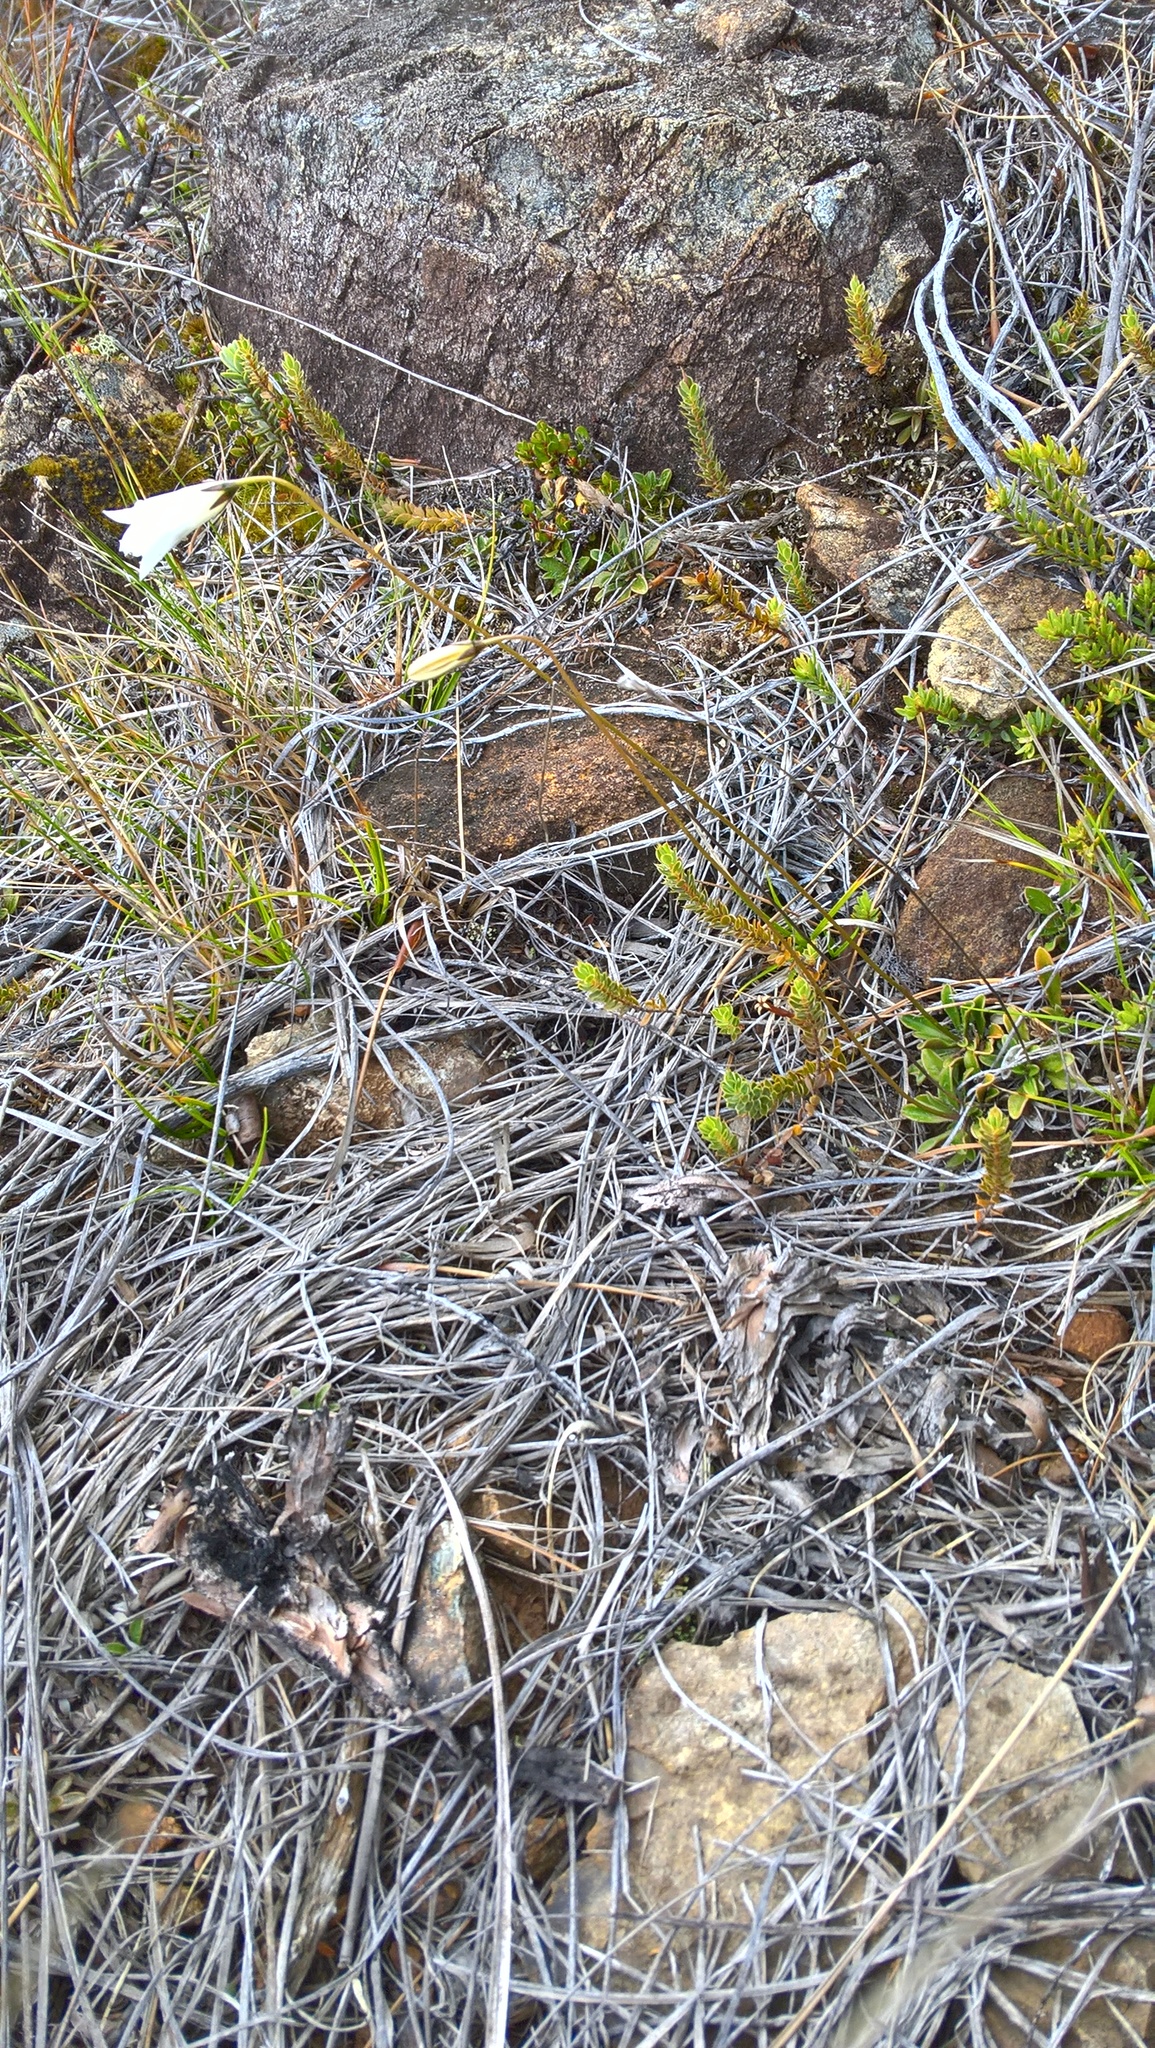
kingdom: Plantae
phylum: Tracheophyta
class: Magnoliopsida
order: Asterales
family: Campanulaceae
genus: Wahlenbergia
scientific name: Wahlenbergia albomarginata
